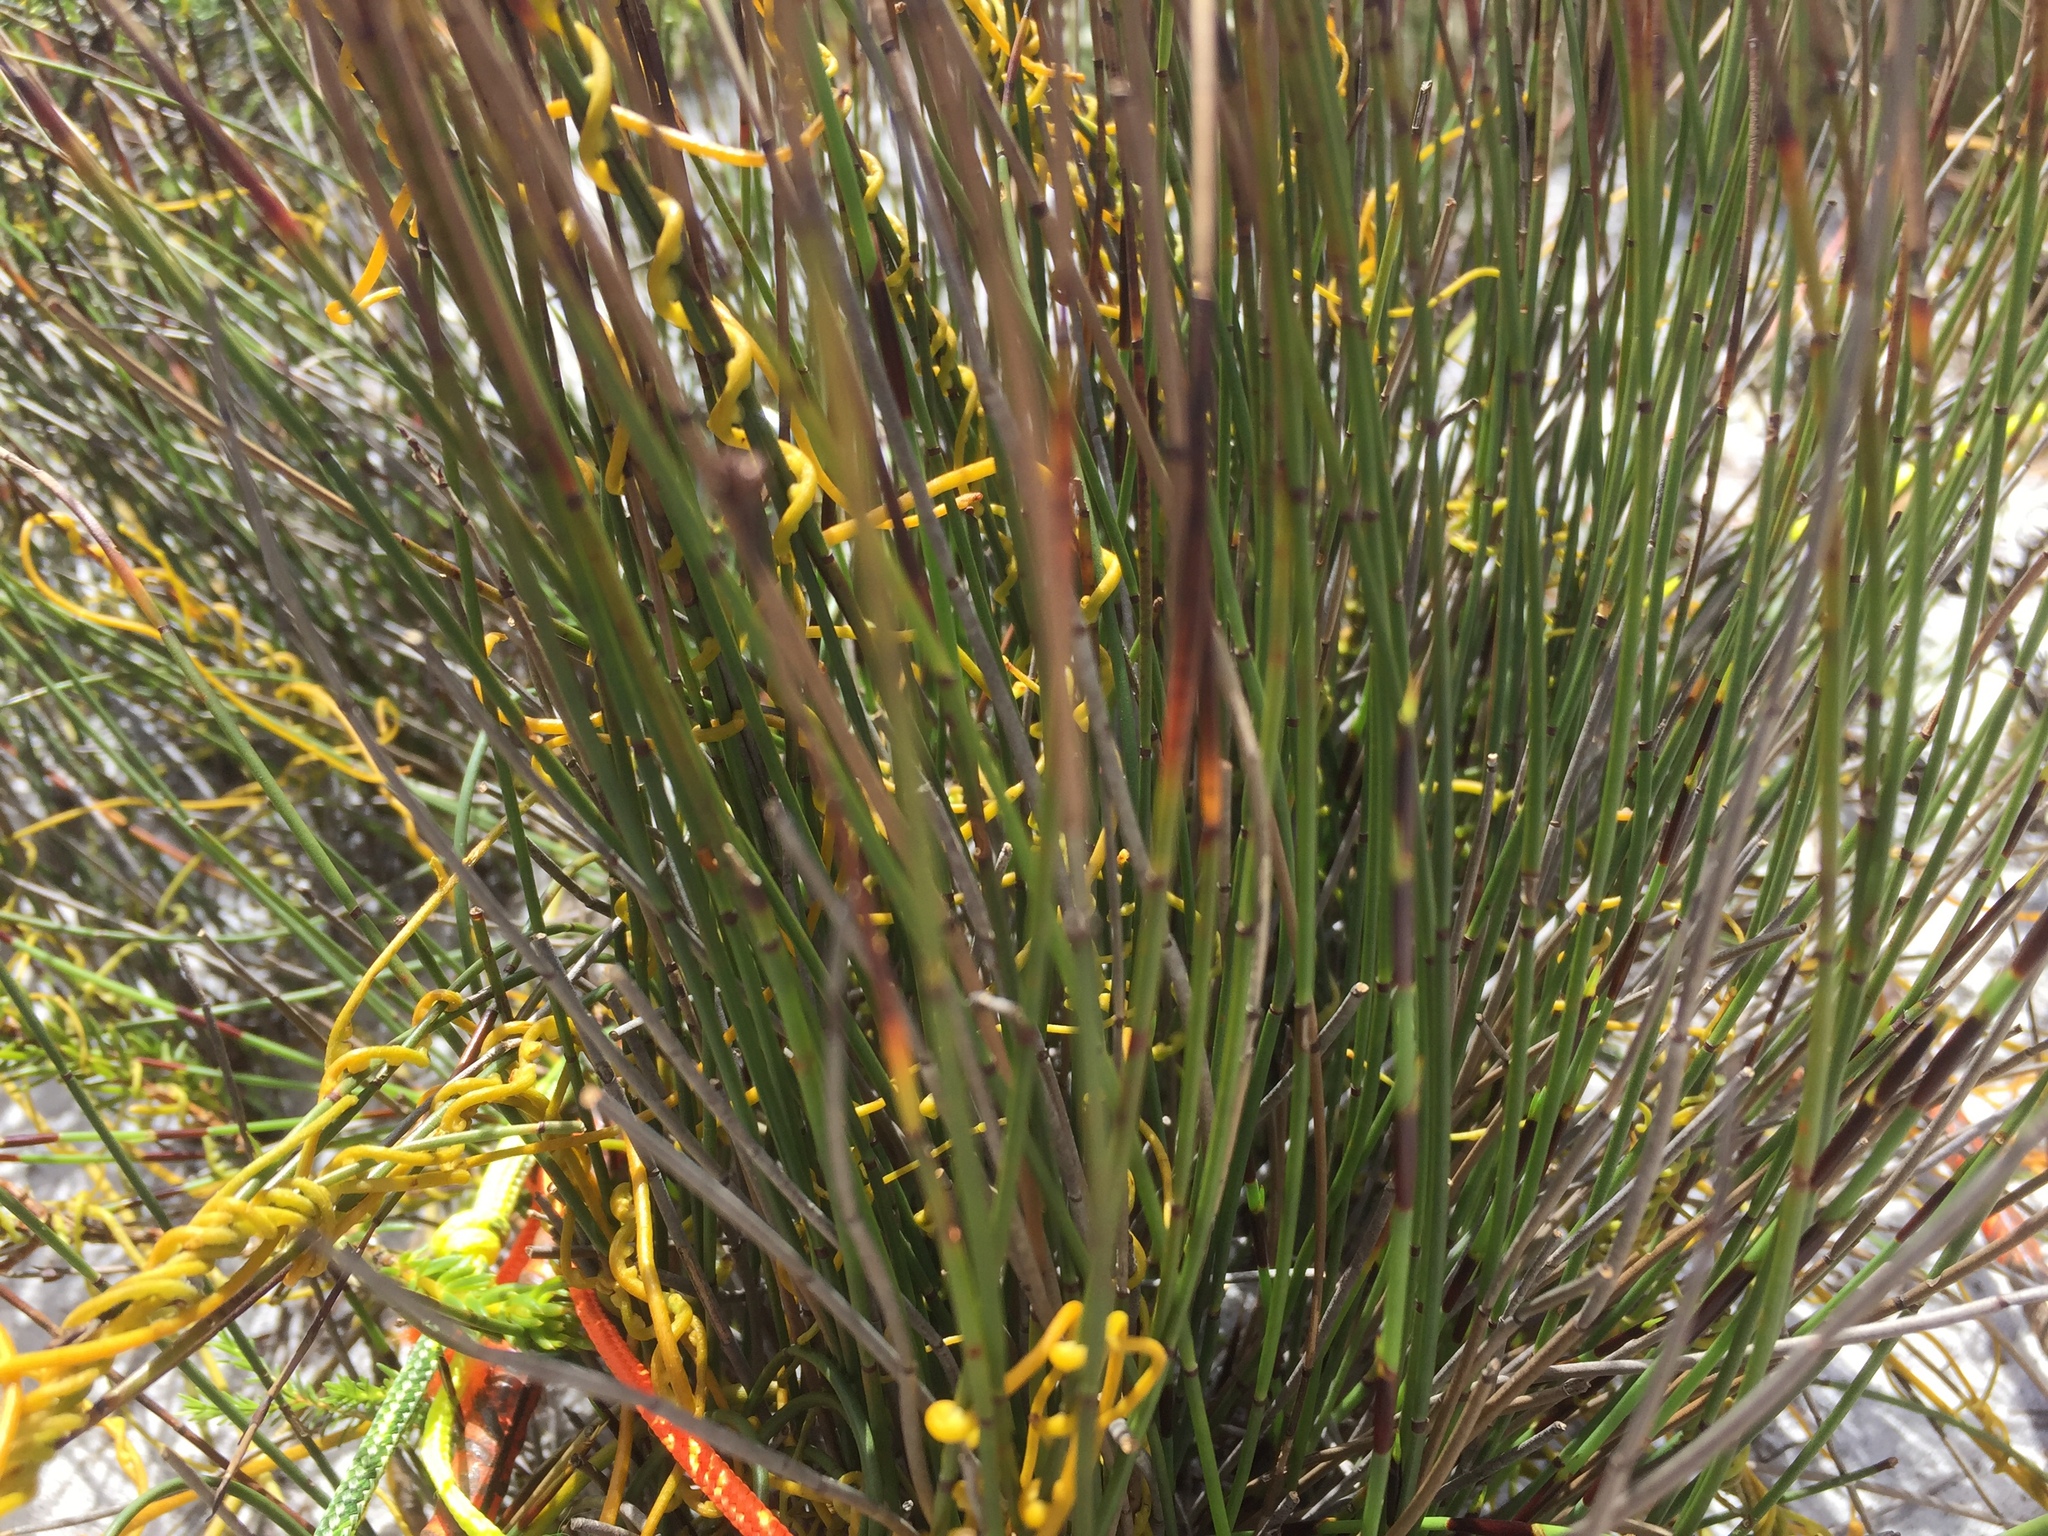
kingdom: Plantae
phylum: Tracheophyta
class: Magnoliopsida
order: Laurales
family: Lauraceae
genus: Cassytha
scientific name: Cassytha ciliolata
